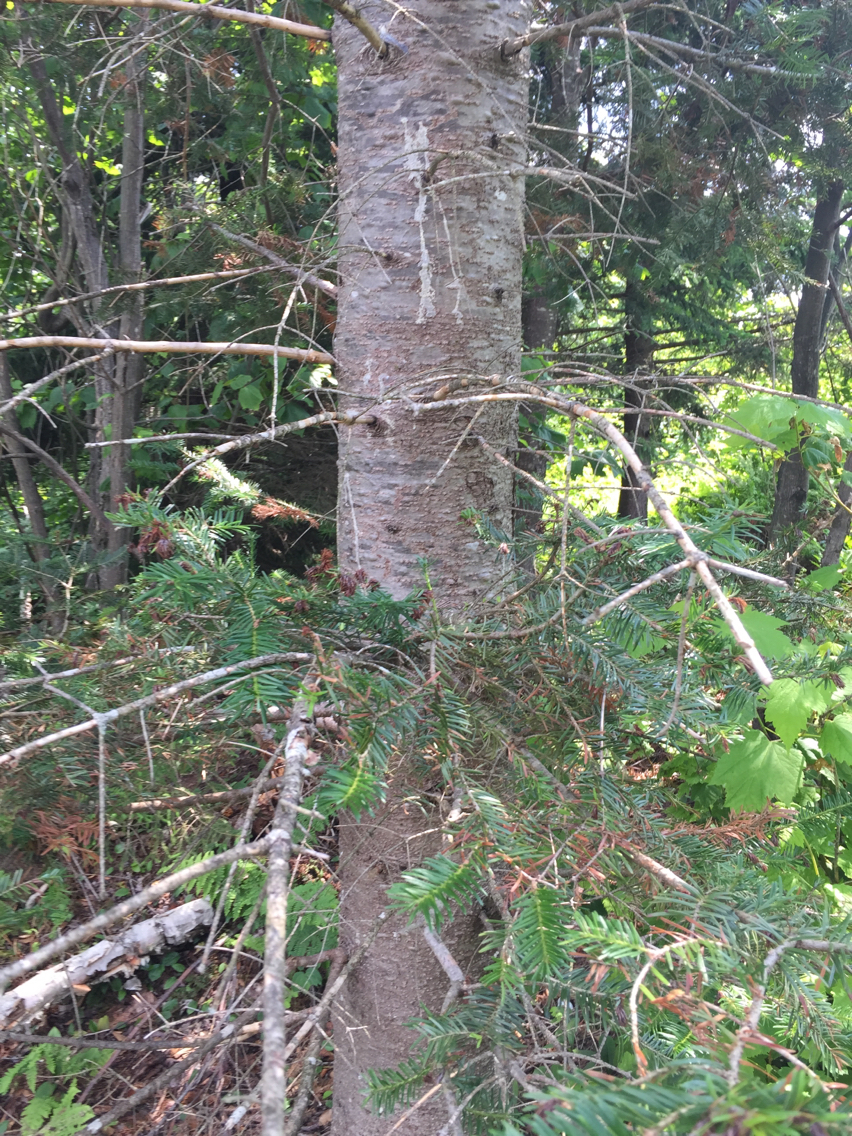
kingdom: Plantae
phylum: Tracheophyta
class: Pinopsida
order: Pinales
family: Pinaceae
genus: Abies
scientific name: Abies balsamea
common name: Balsam fir
